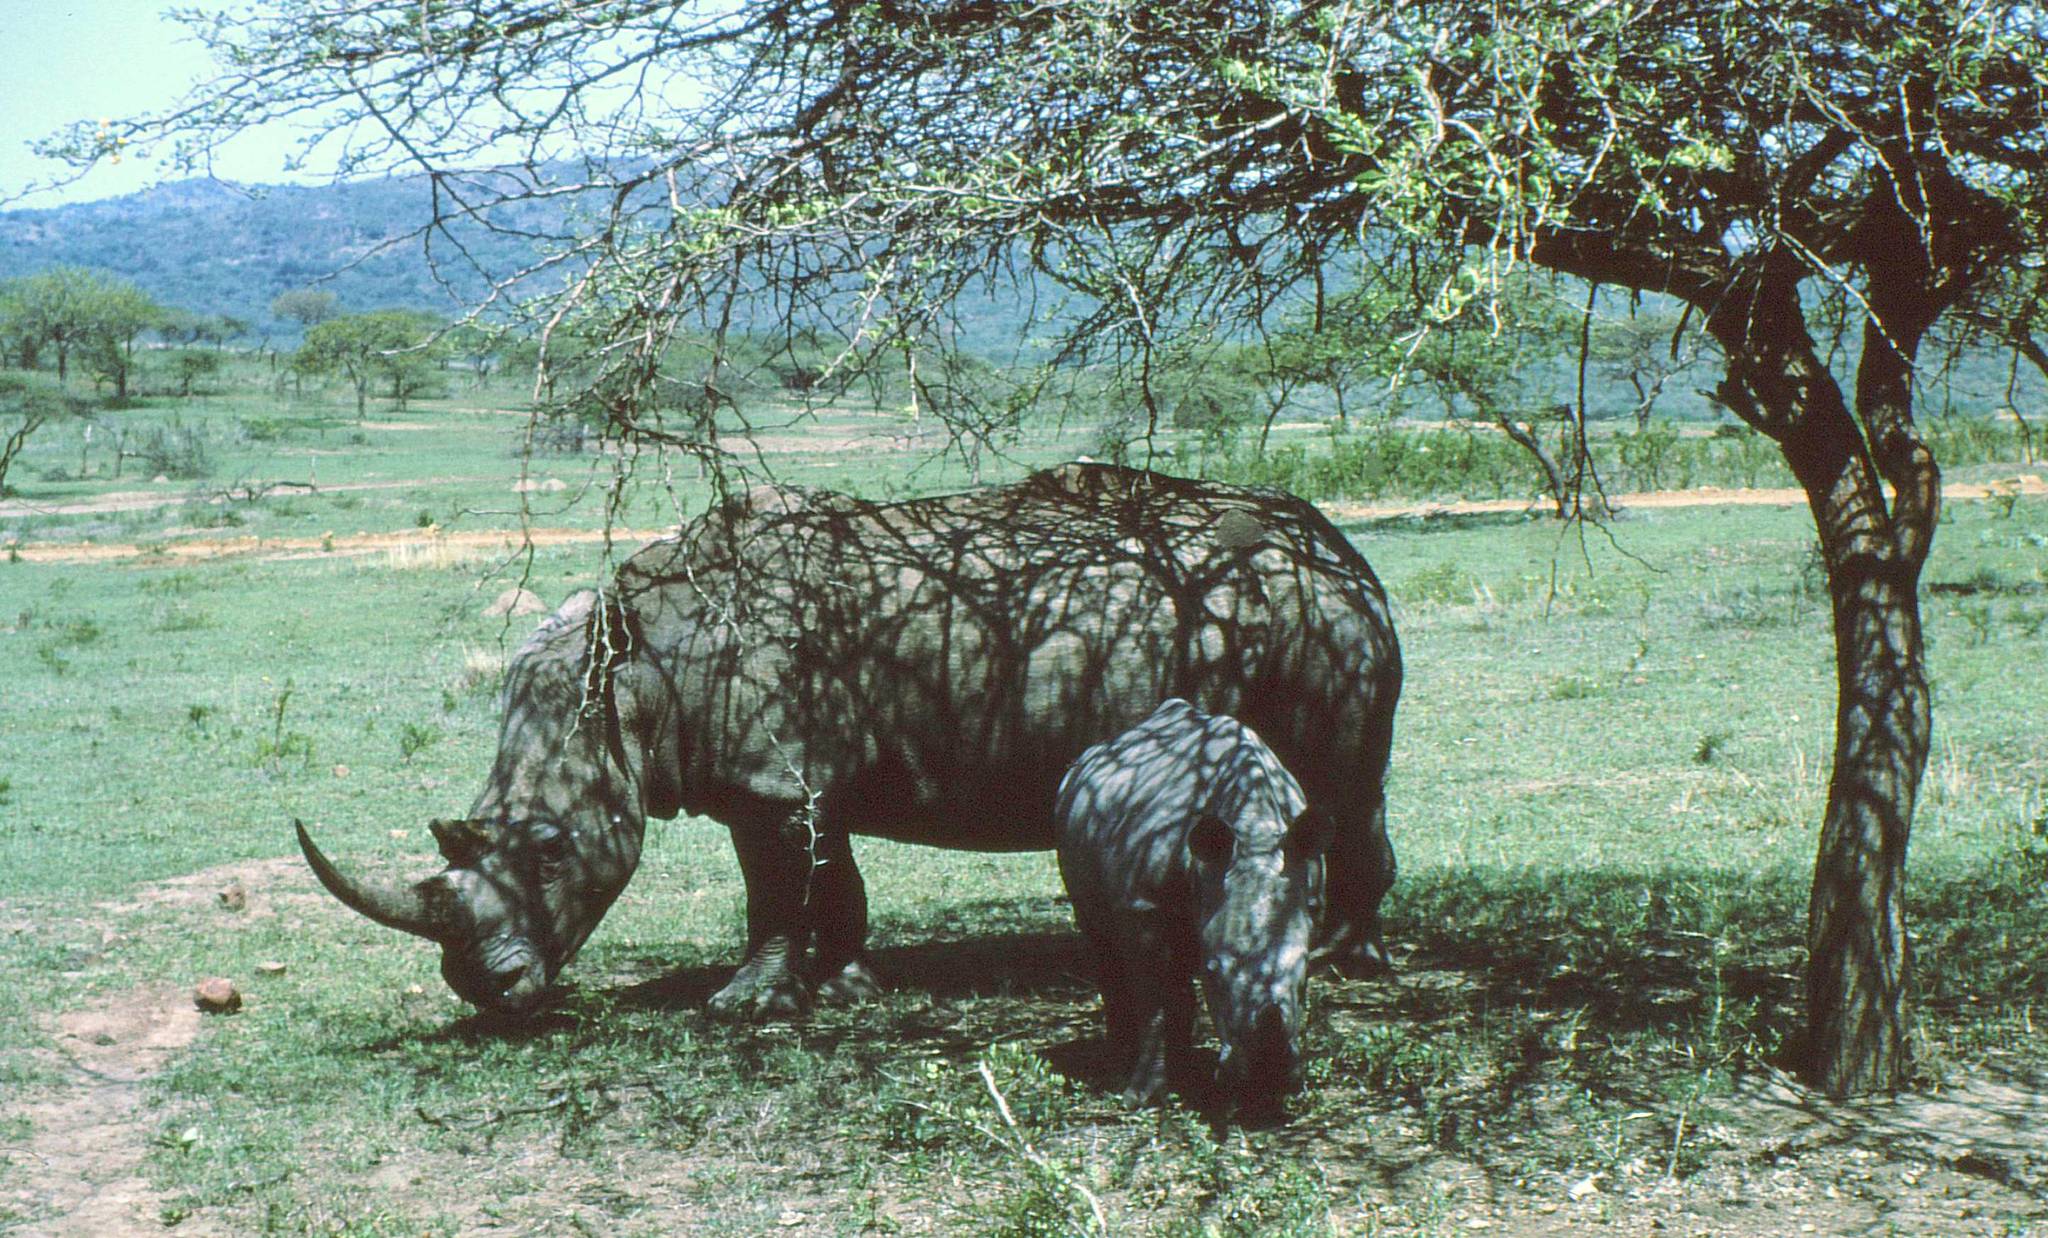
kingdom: Animalia
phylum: Chordata
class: Mammalia
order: Perissodactyla
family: Rhinocerotidae
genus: Ceratotherium
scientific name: Ceratotherium simum
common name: White rhinoceros
